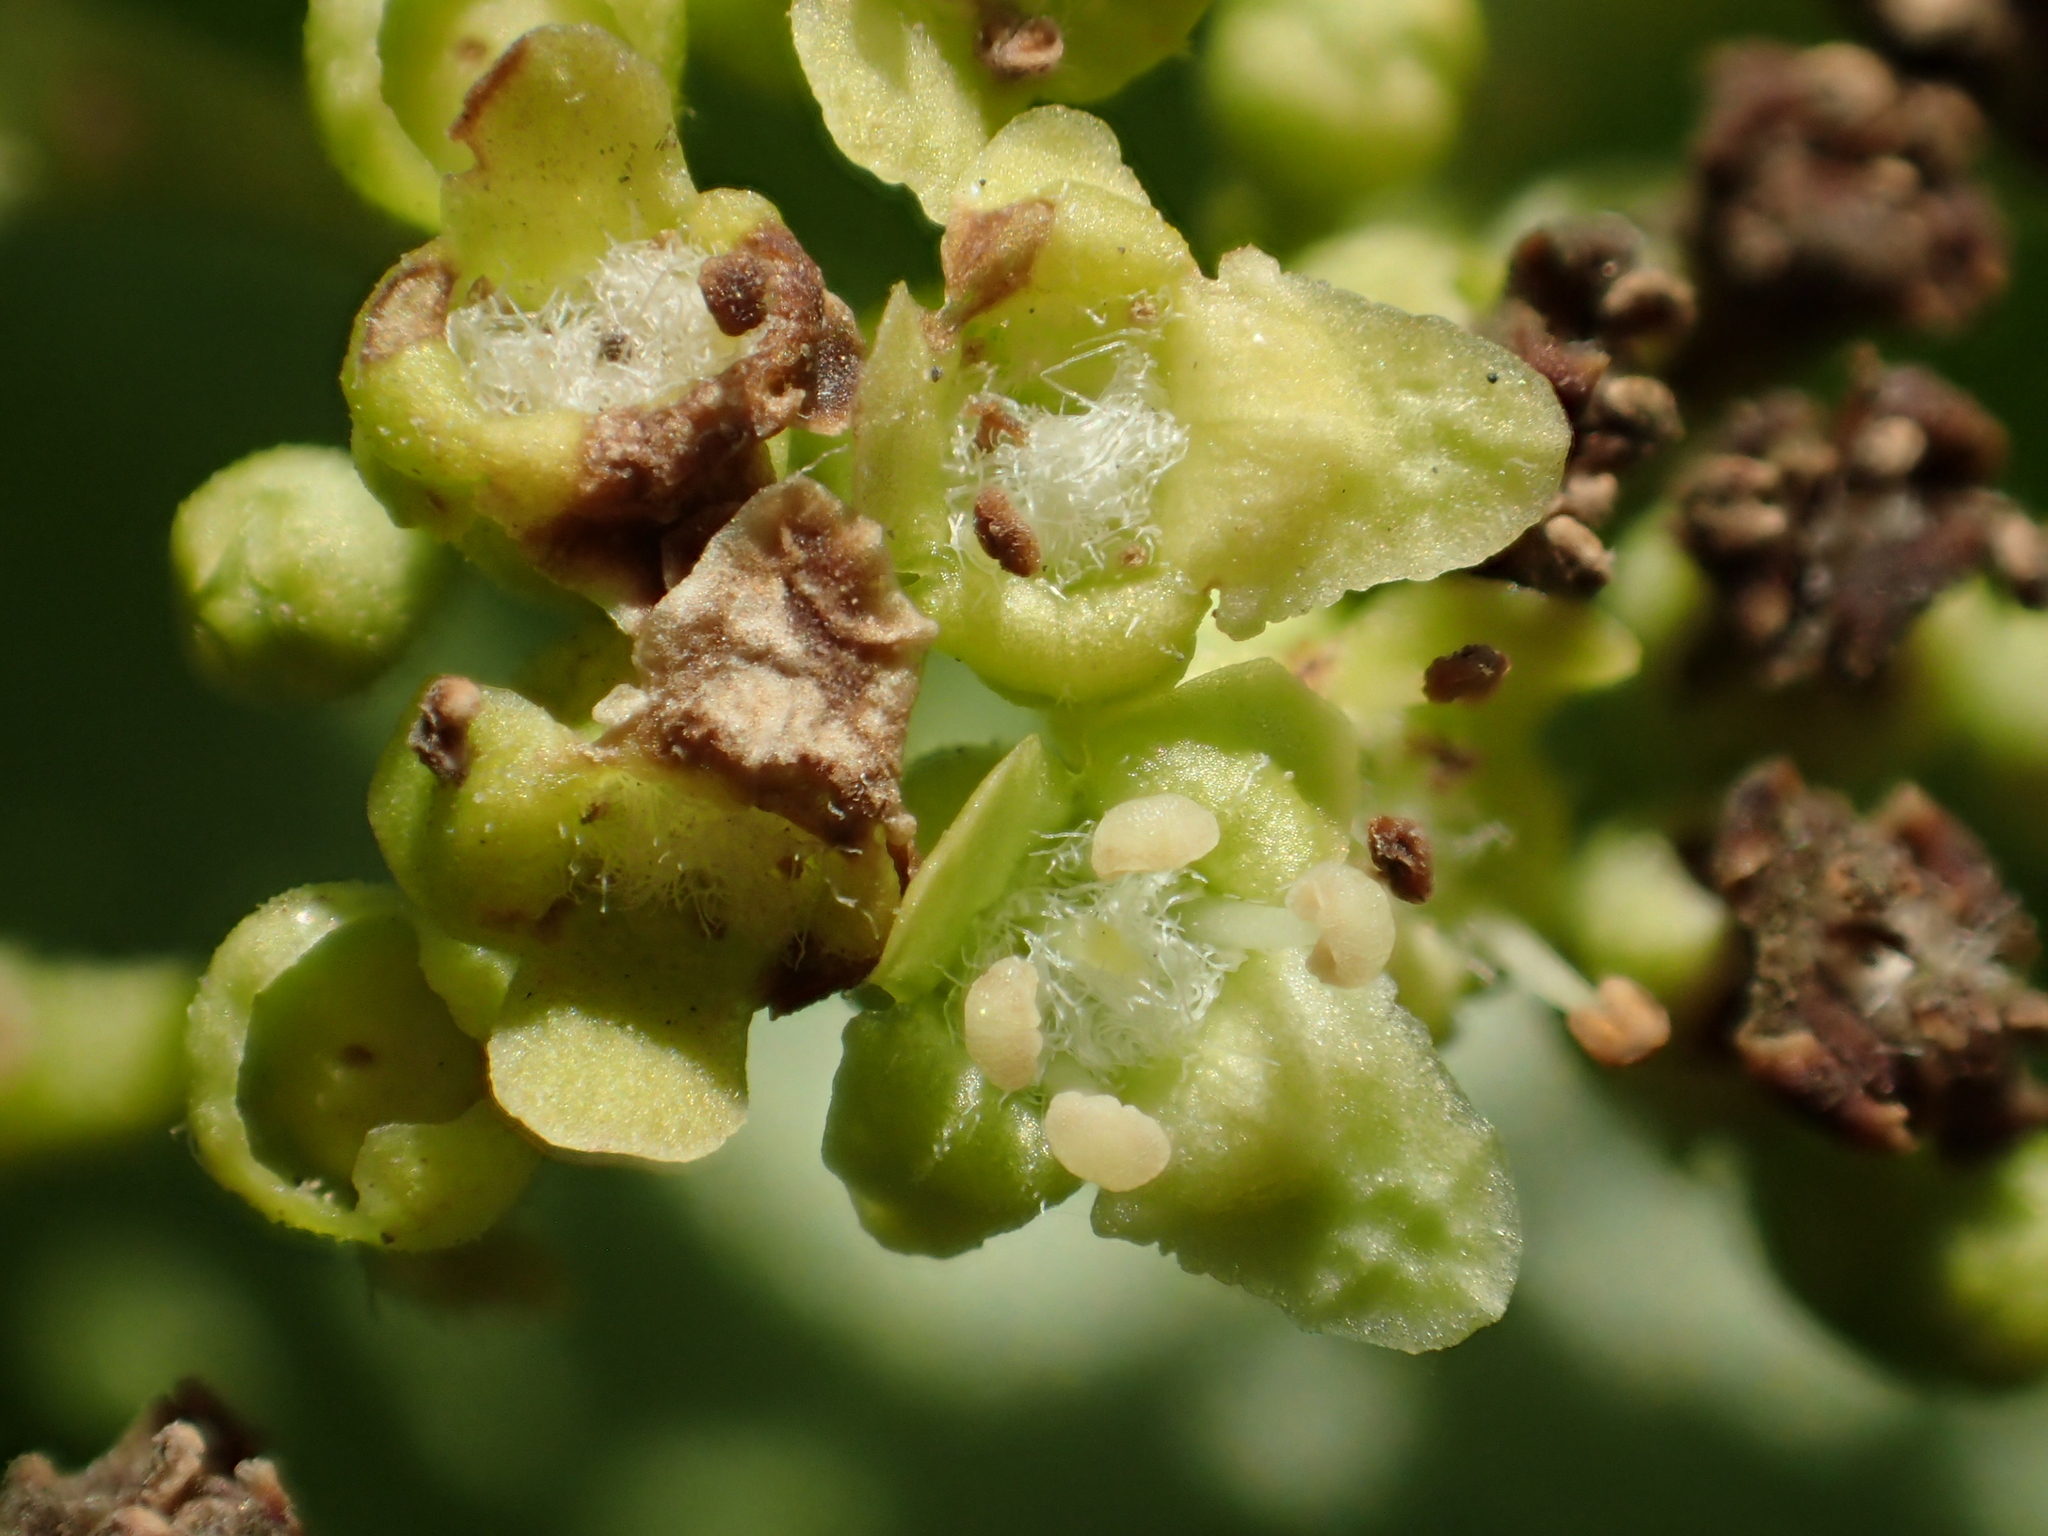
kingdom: Plantae
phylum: Tracheophyta
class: Magnoliopsida
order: Lamiales
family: Lamiaceae
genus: Premna
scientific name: Premna serratifolia
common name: Bastard guelder
